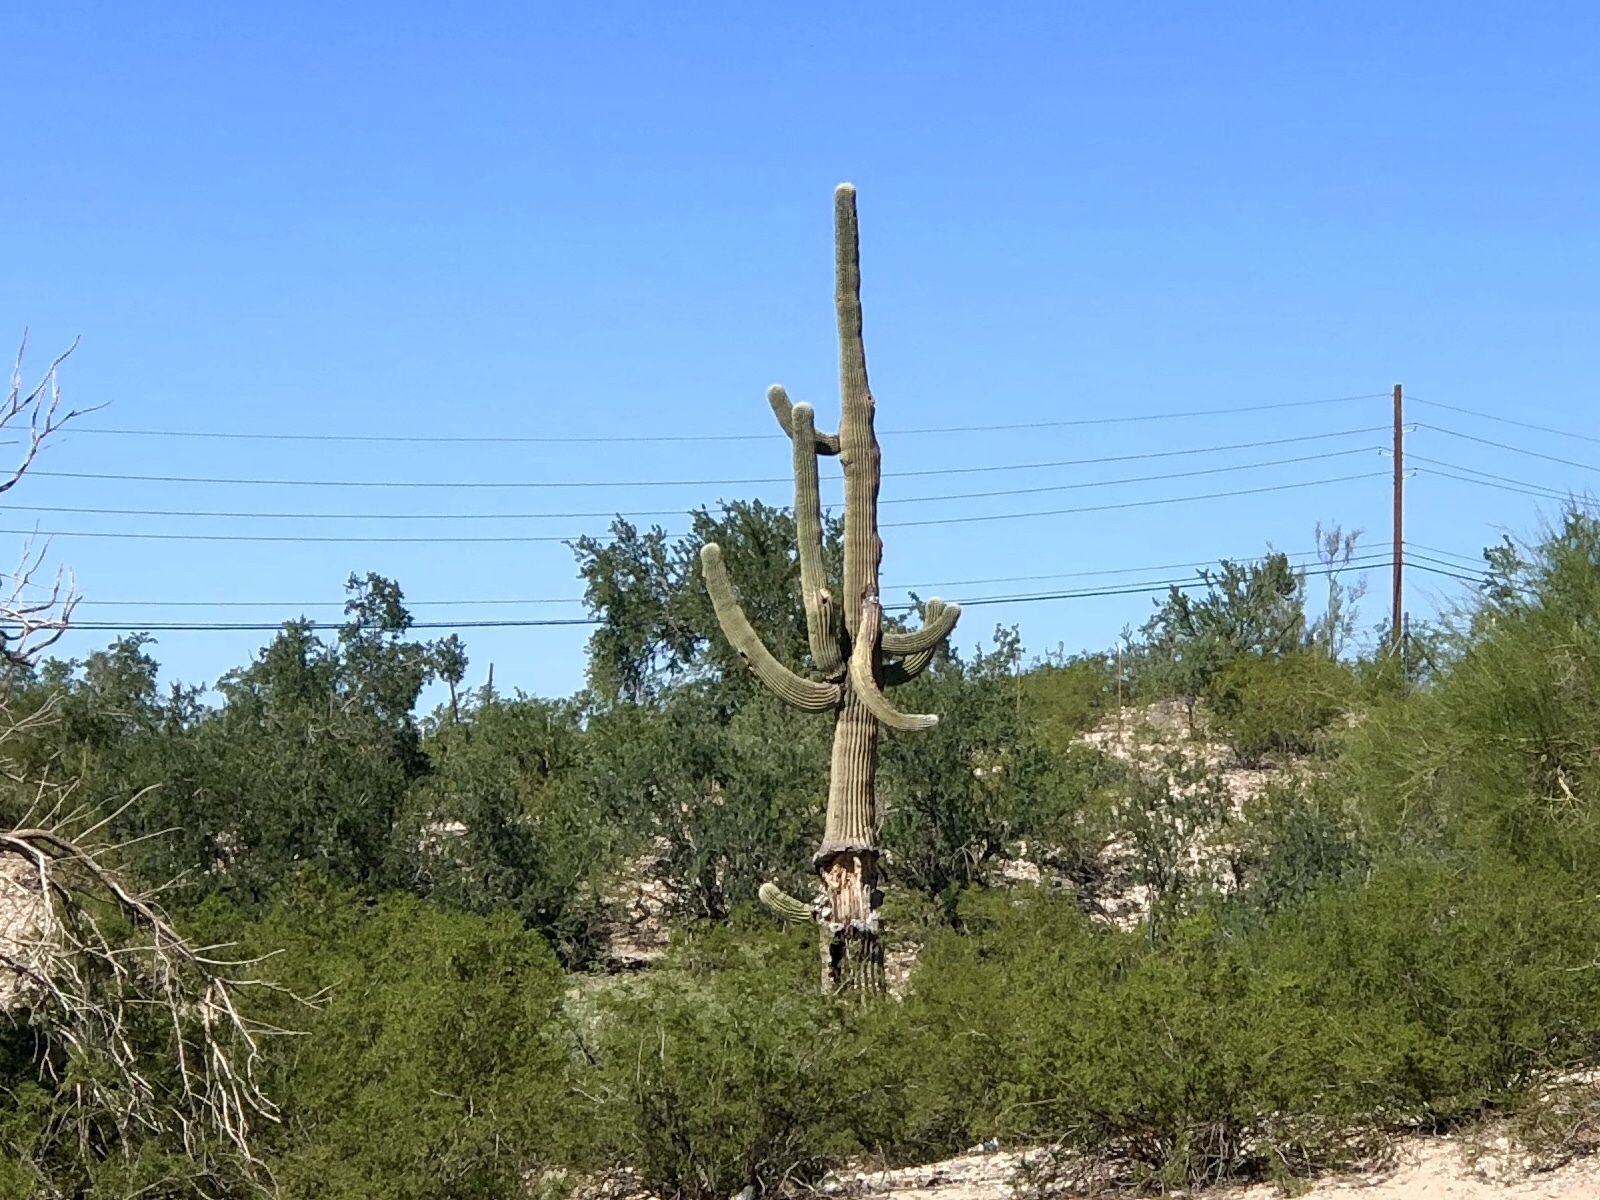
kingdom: Plantae
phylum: Tracheophyta
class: Magnoliopsida
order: Caryophyllales
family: Cactaceae
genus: Carnegiea
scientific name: Carnegiea gigantea
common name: Saguaro
